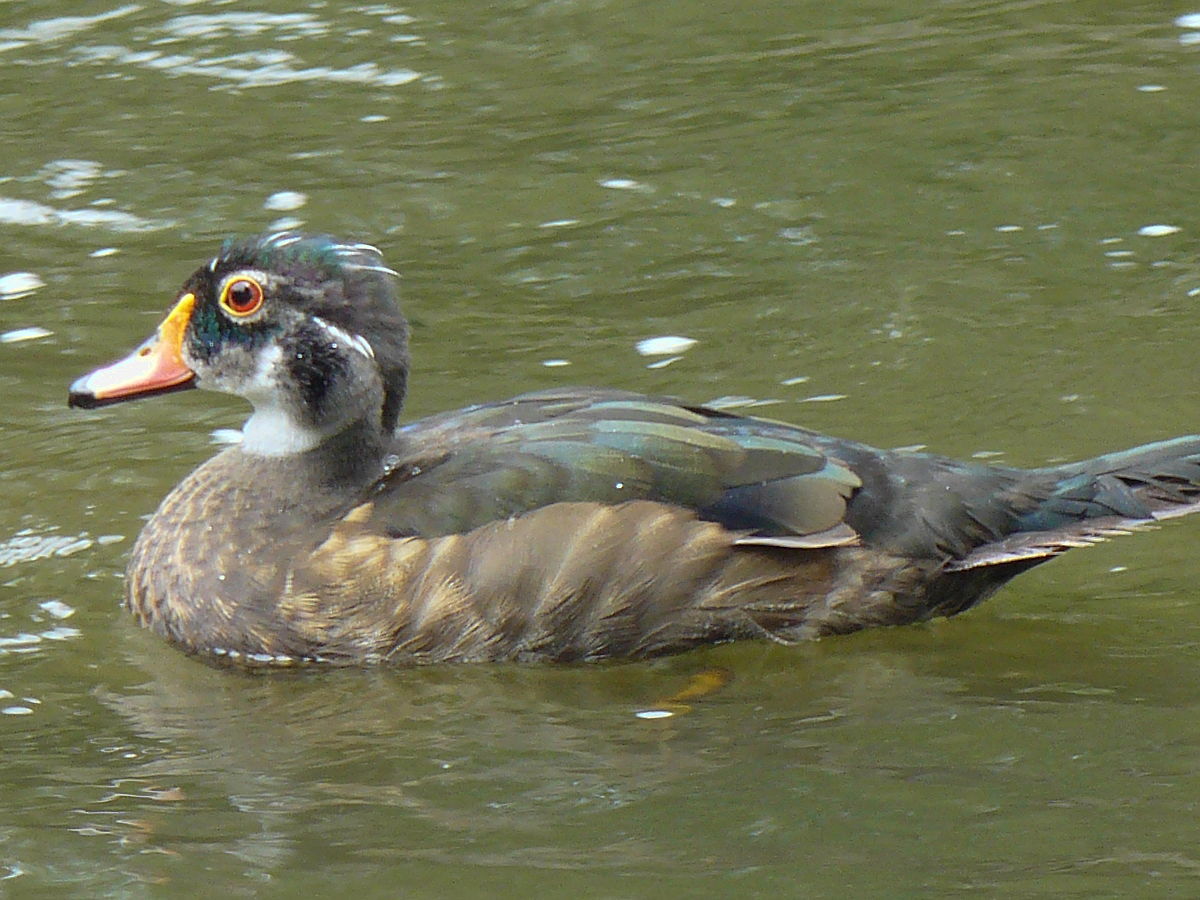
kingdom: Animalia
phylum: Chordata
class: Aves
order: Anseriformes
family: Anatidae
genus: Aix
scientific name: Aix sponsa
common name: Wood duck
